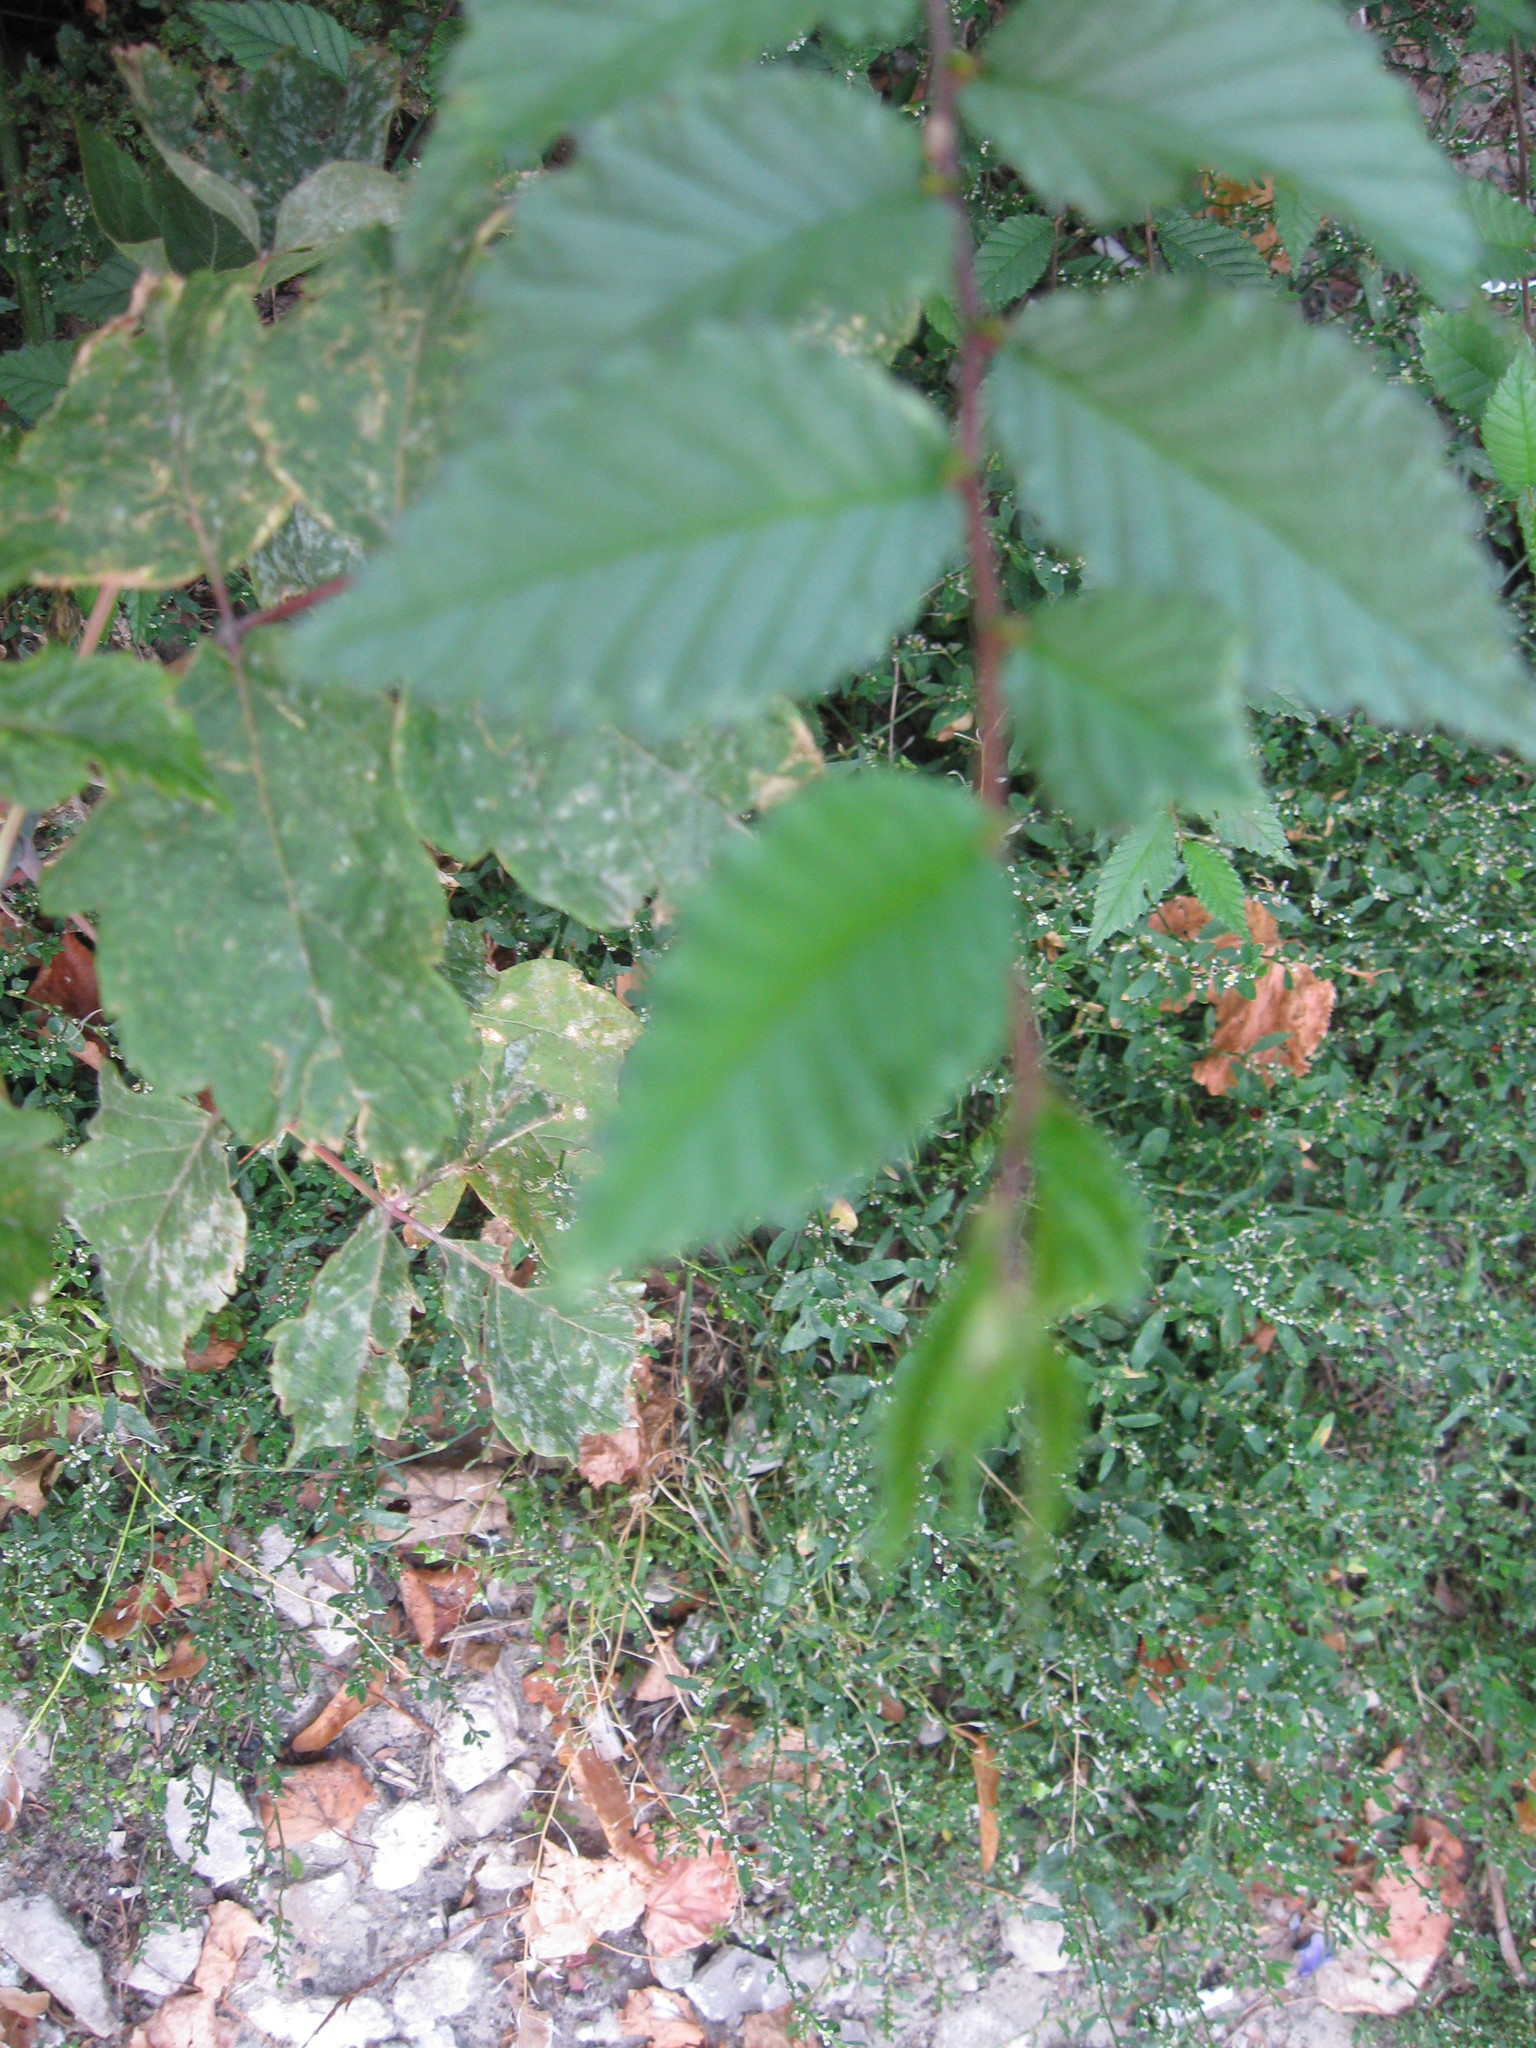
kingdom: Plantae
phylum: Tracheophyta
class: Magnoliopsida
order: Rosales
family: Ulmaceae
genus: Ulmus
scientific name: Ulmus pumila
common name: Siberian elm
